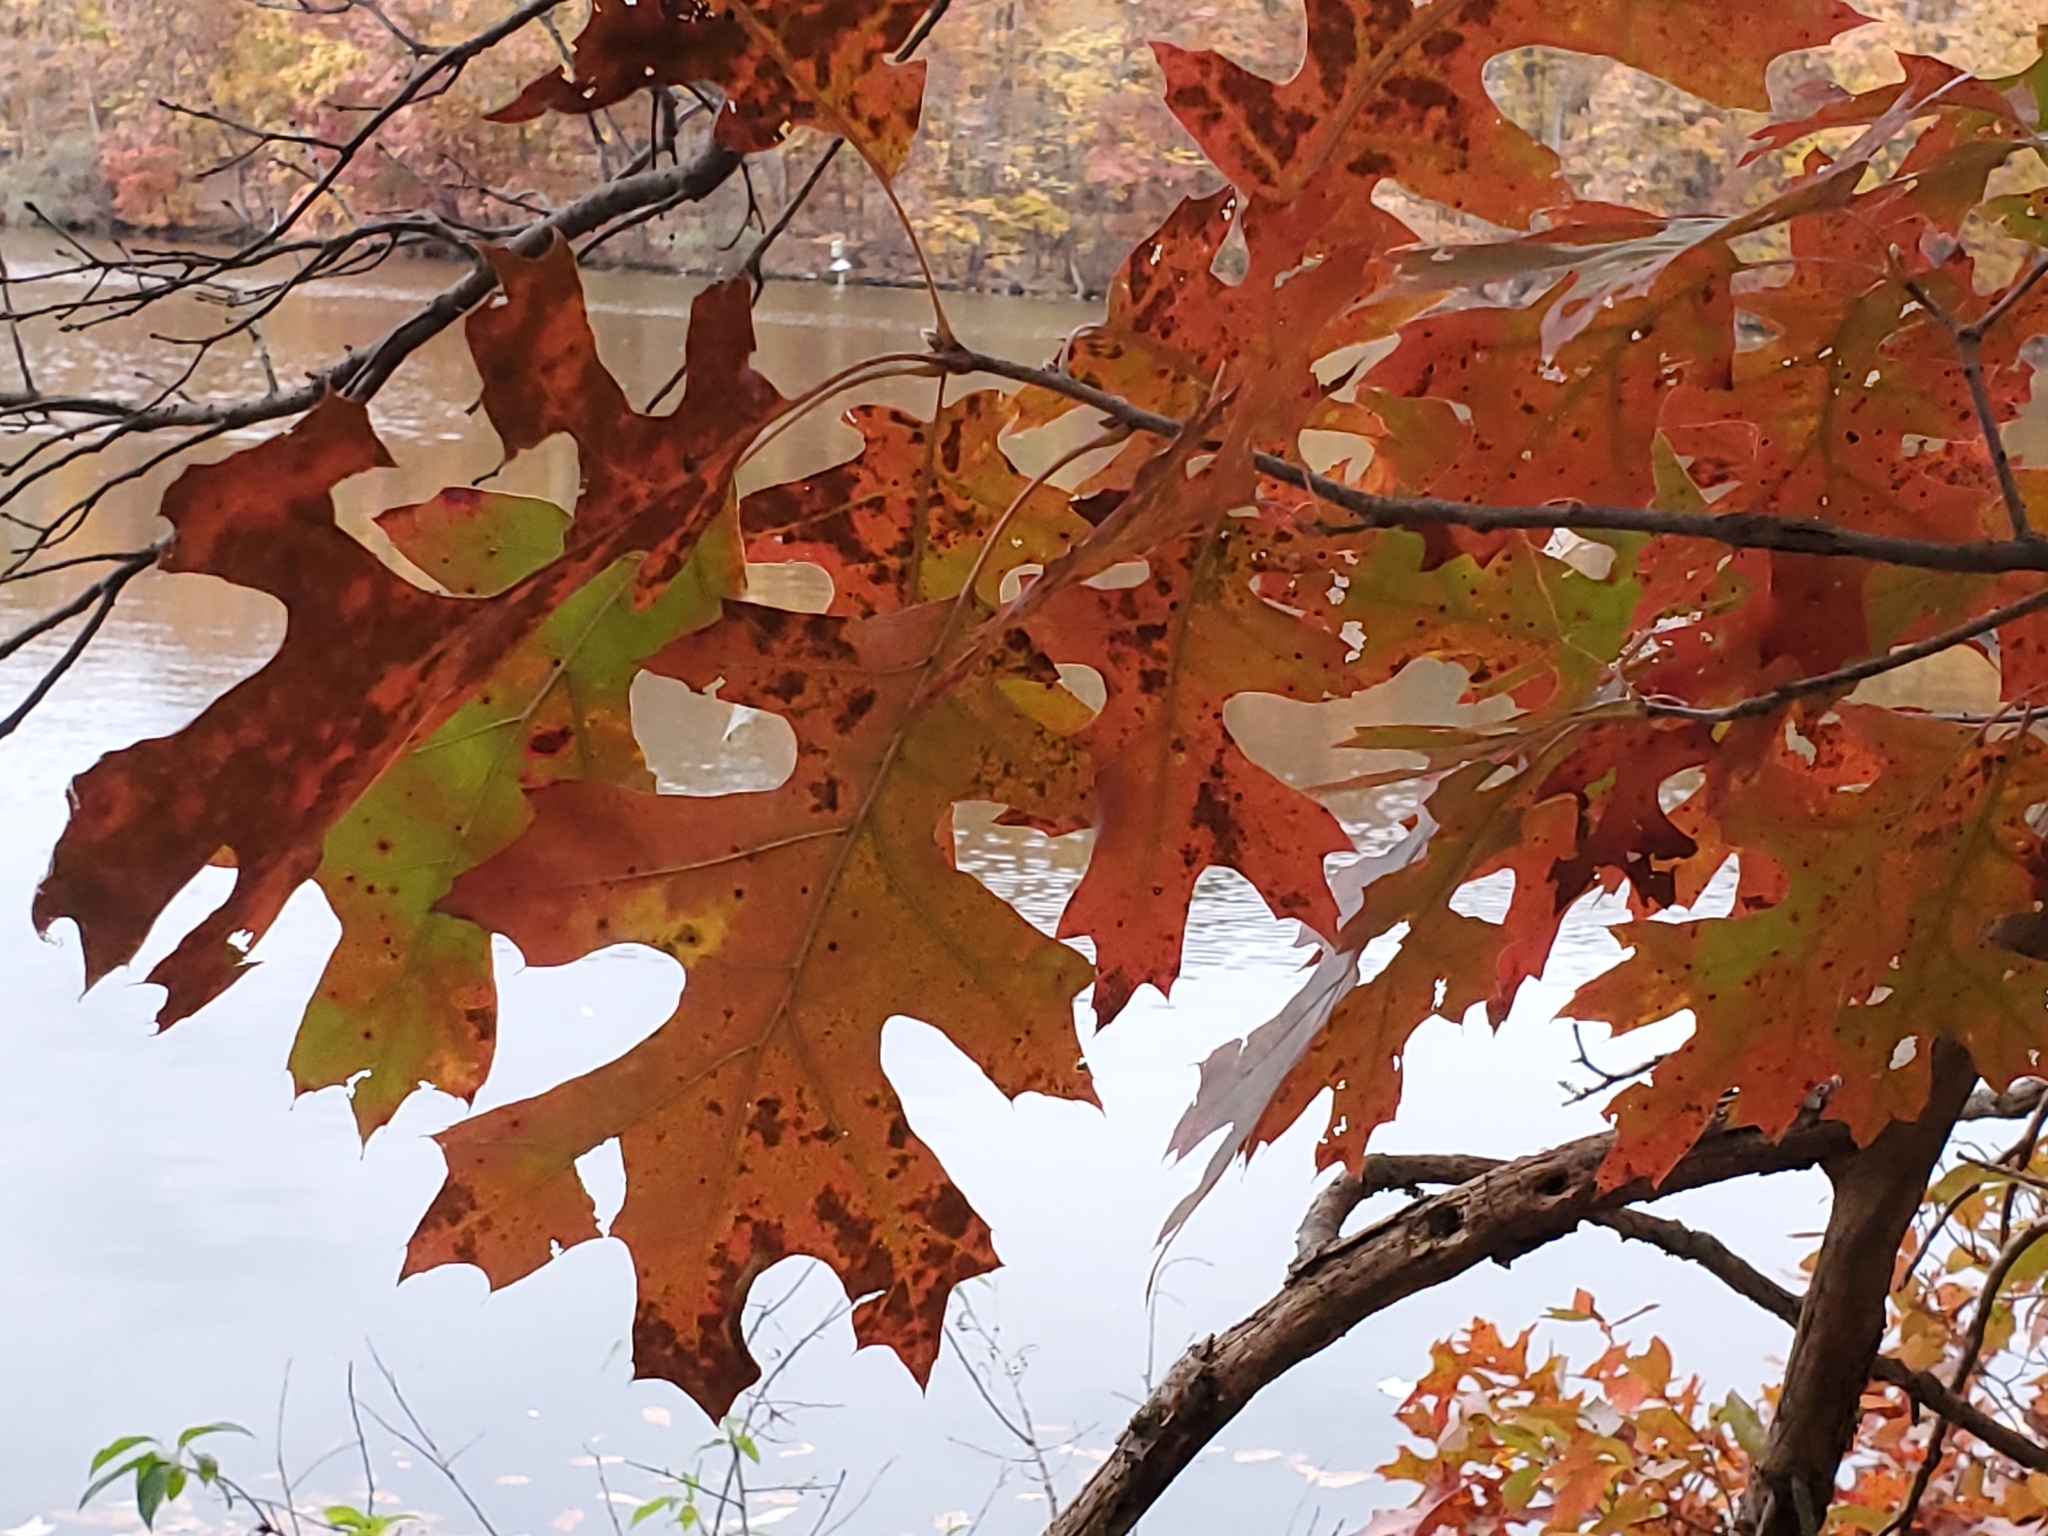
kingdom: Plantae
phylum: Tracheophyta
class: Magnoliopsida
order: Fagales
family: Fagaceae
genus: Quercus
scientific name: Quercus velutina
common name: Black oak
